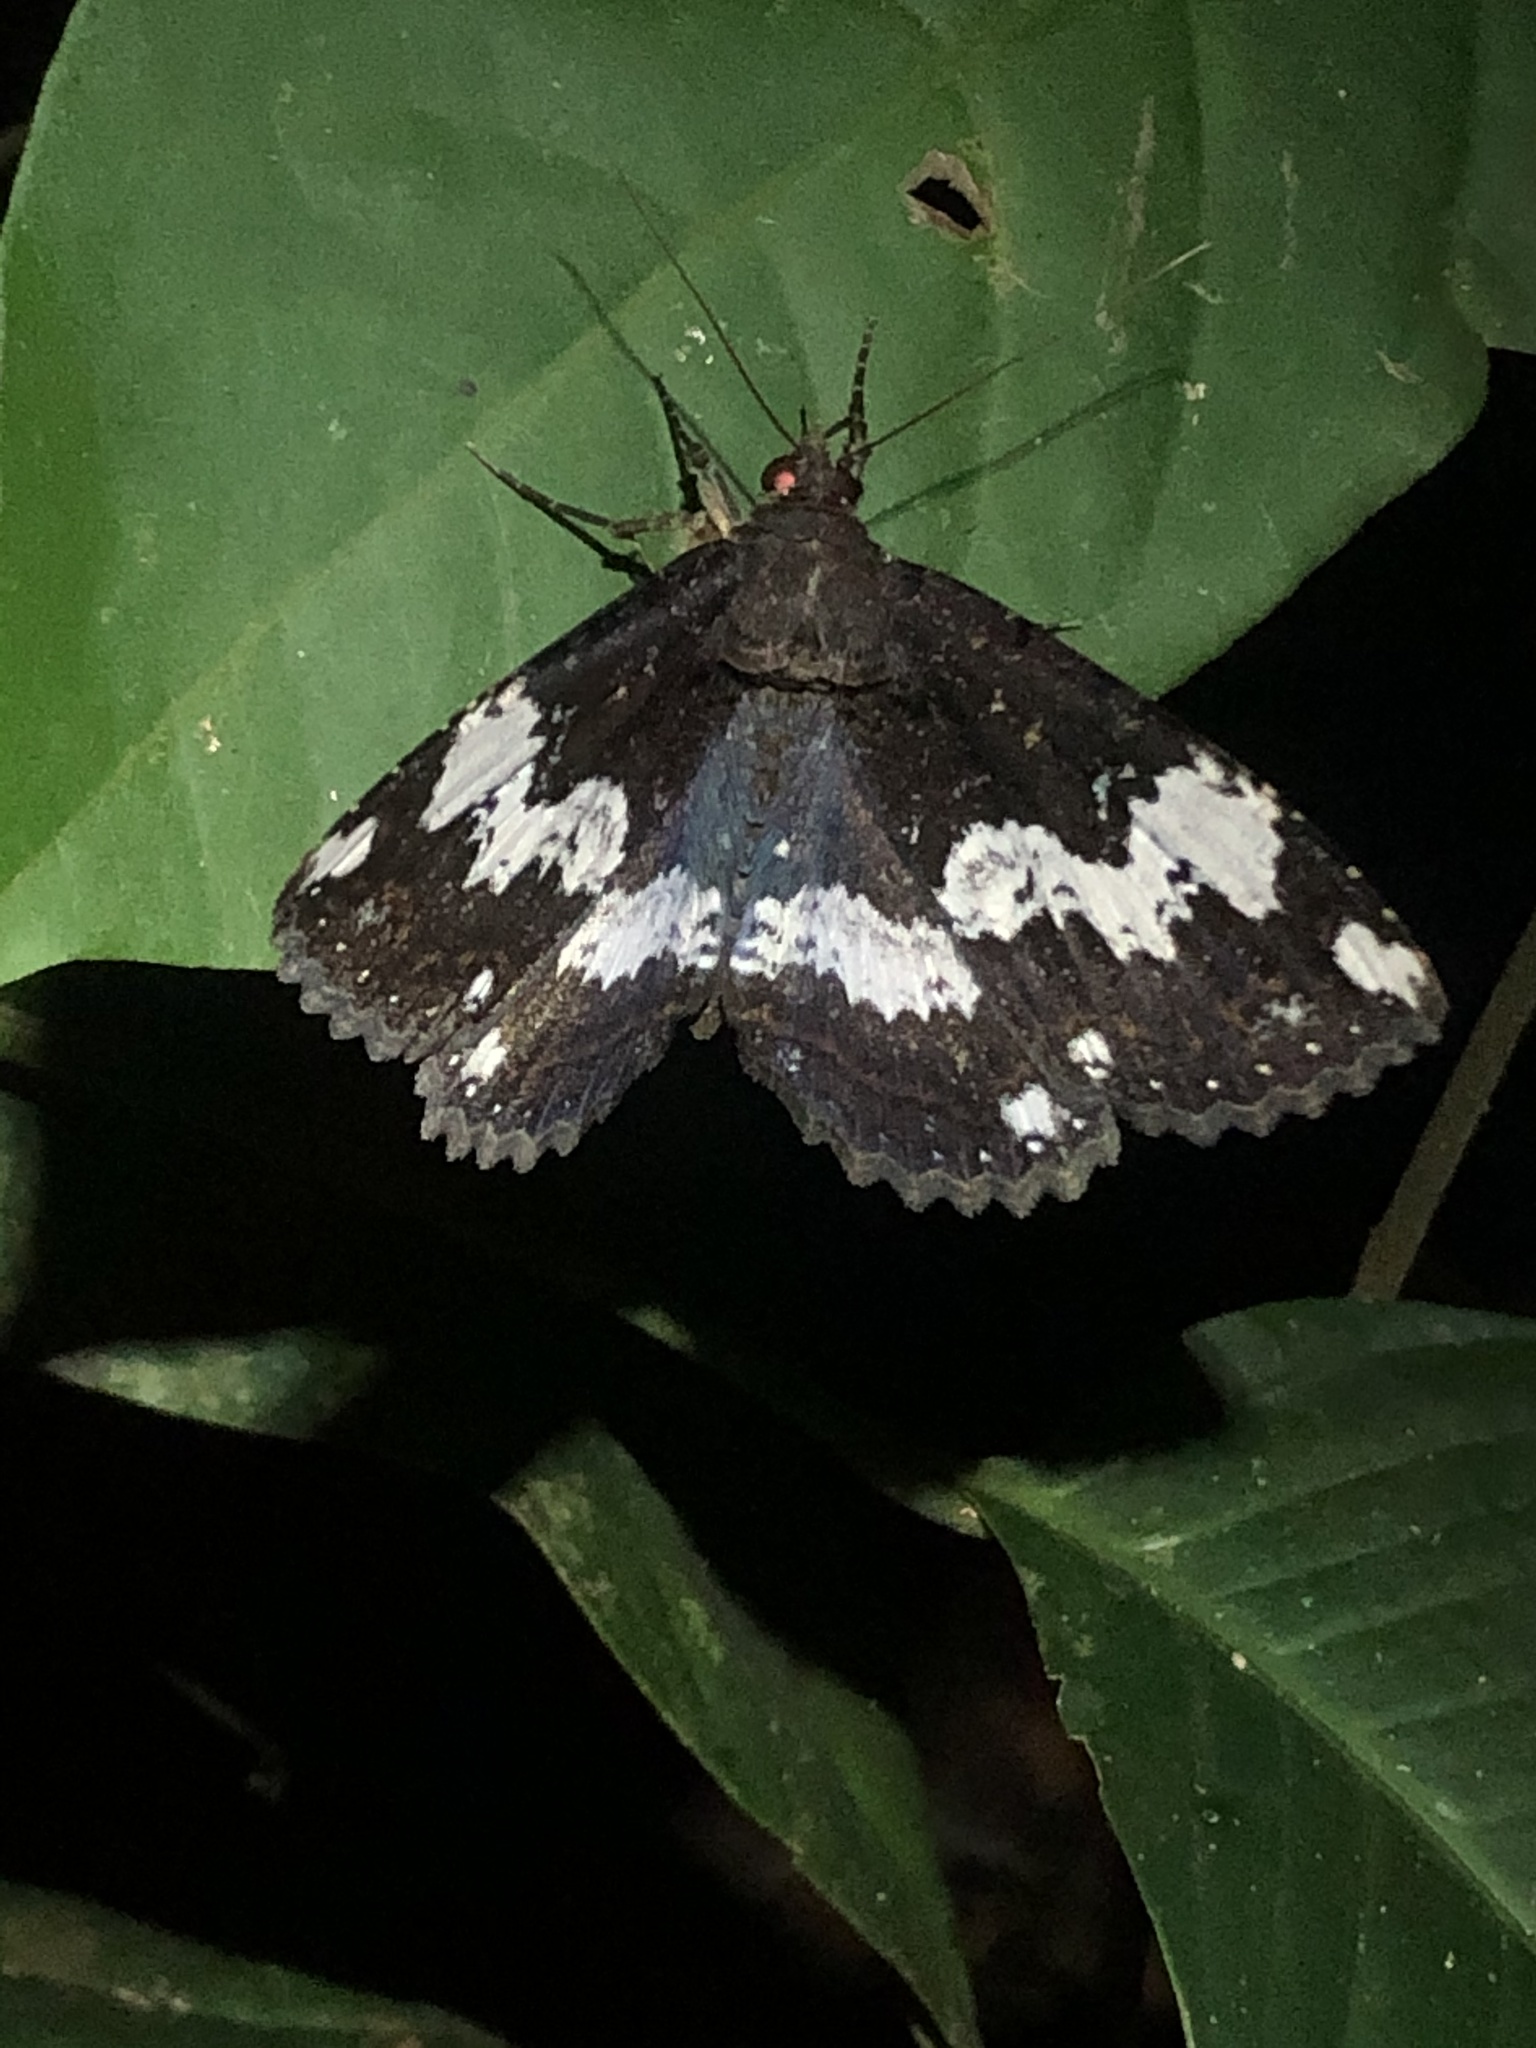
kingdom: Animalia
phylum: Arthropoda
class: Insecta
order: Lepidoptera
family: Erebidae
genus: Ramphia
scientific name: Ramphia albizona
